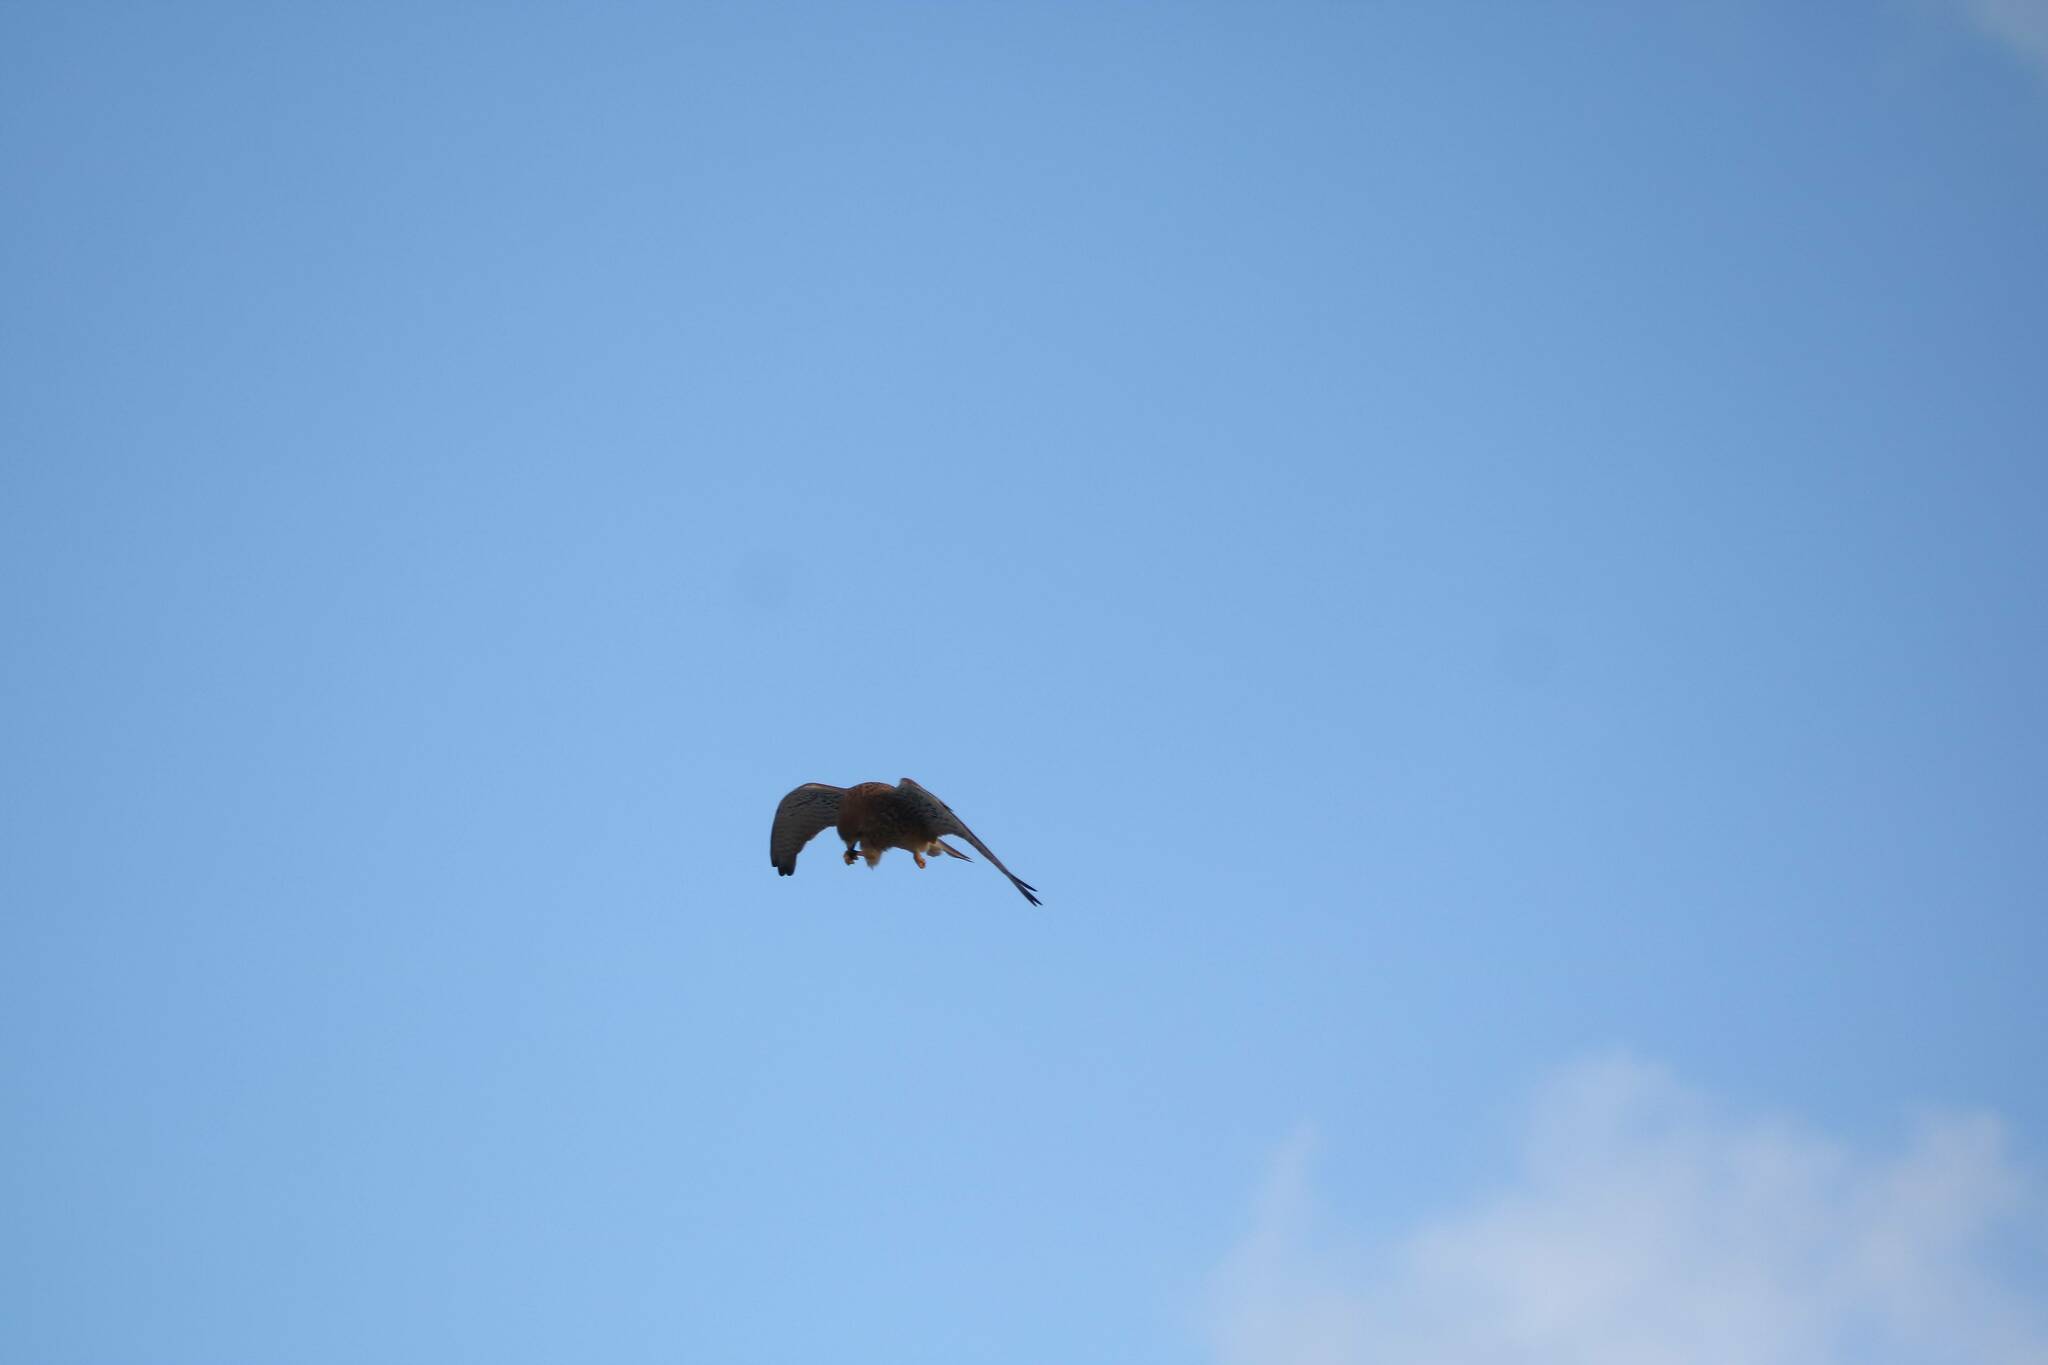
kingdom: Animalia
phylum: Chordata
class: Aves
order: Falconiformes
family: Falconidae
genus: Falco
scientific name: Falco tinnunculus
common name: Common kestrel
